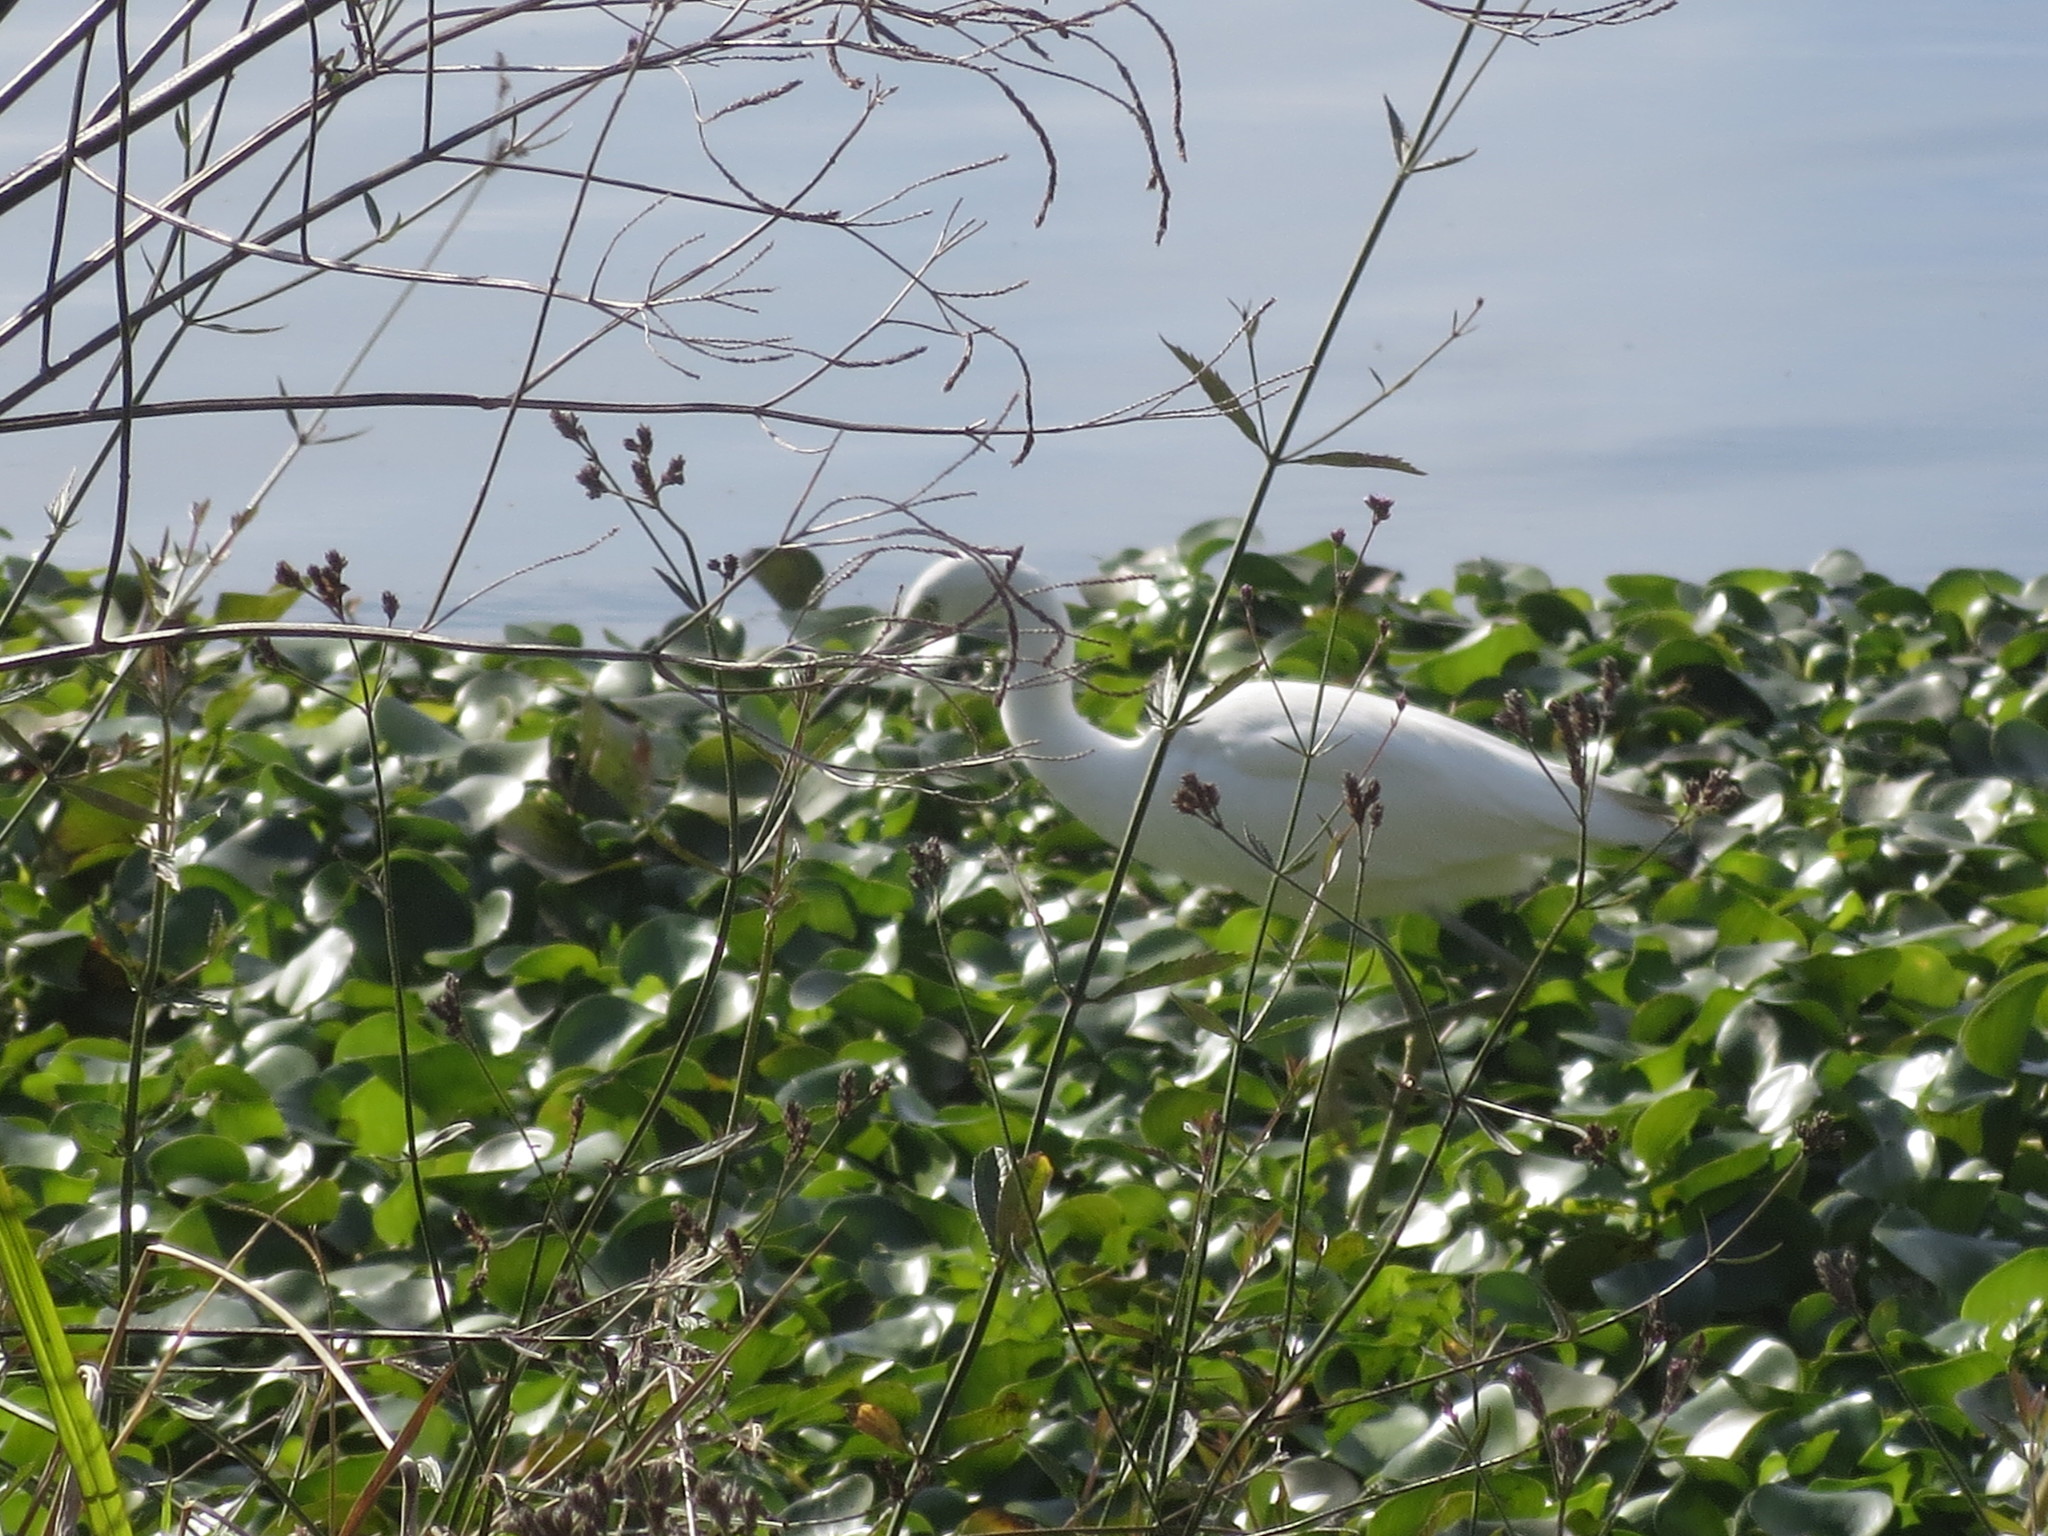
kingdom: Animalia
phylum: Chordata
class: Aves
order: Pelecaniformes
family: Ardeidae
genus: Egretta
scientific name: Egretta caerulea
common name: Little blue heron
